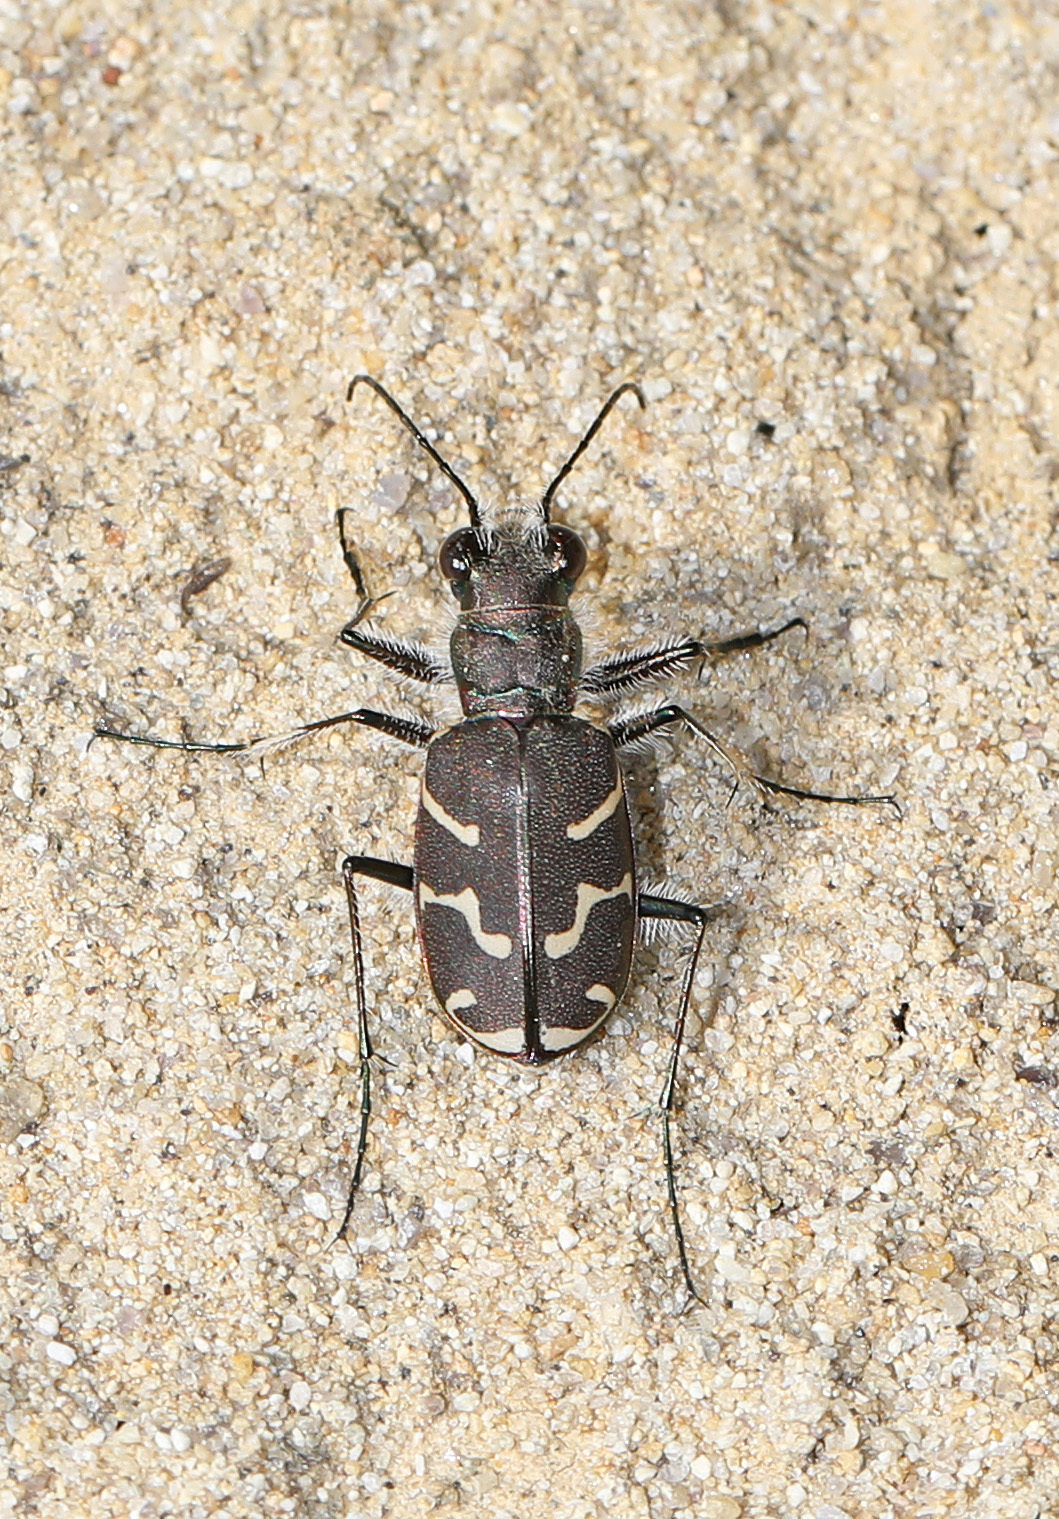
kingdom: Animalia
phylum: Arthropoda
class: Insecta
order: Coleoptera
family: Carabidae
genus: Cicindela
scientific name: Cicindela tranquebarica
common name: Oblique-lined tiger beetle
